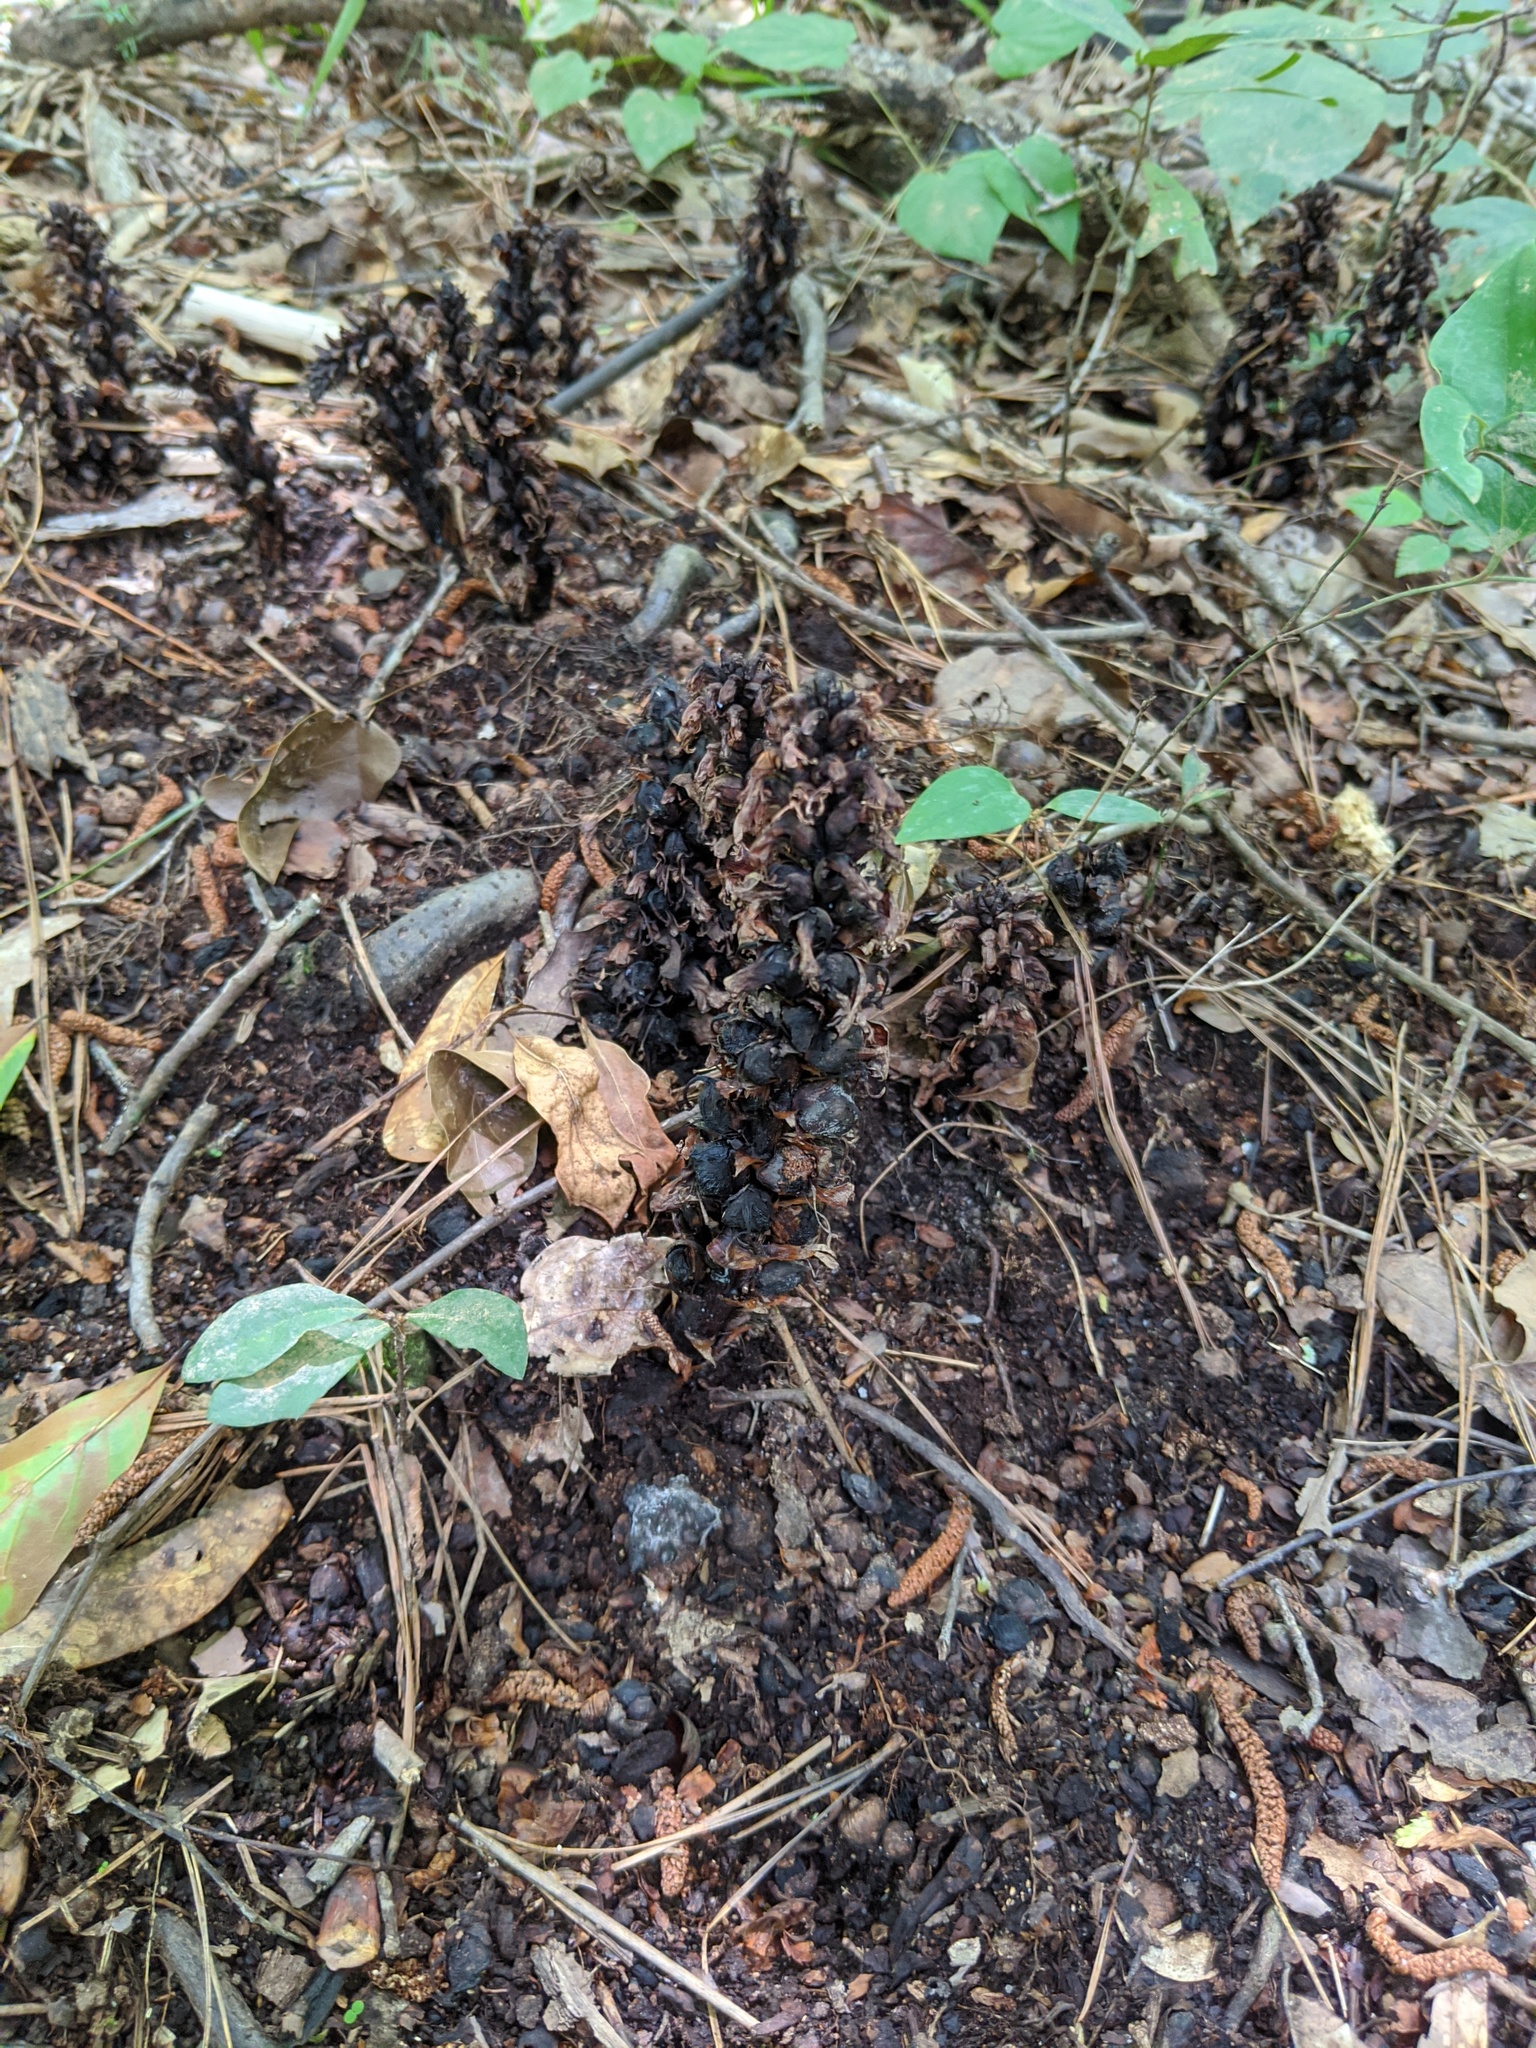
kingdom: Plantae
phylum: Tracheophyta
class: Magnoliopsida
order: Lamiales
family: Orobanchaceae
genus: Conopholis
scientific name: Conopholis americana
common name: American cancer-root
